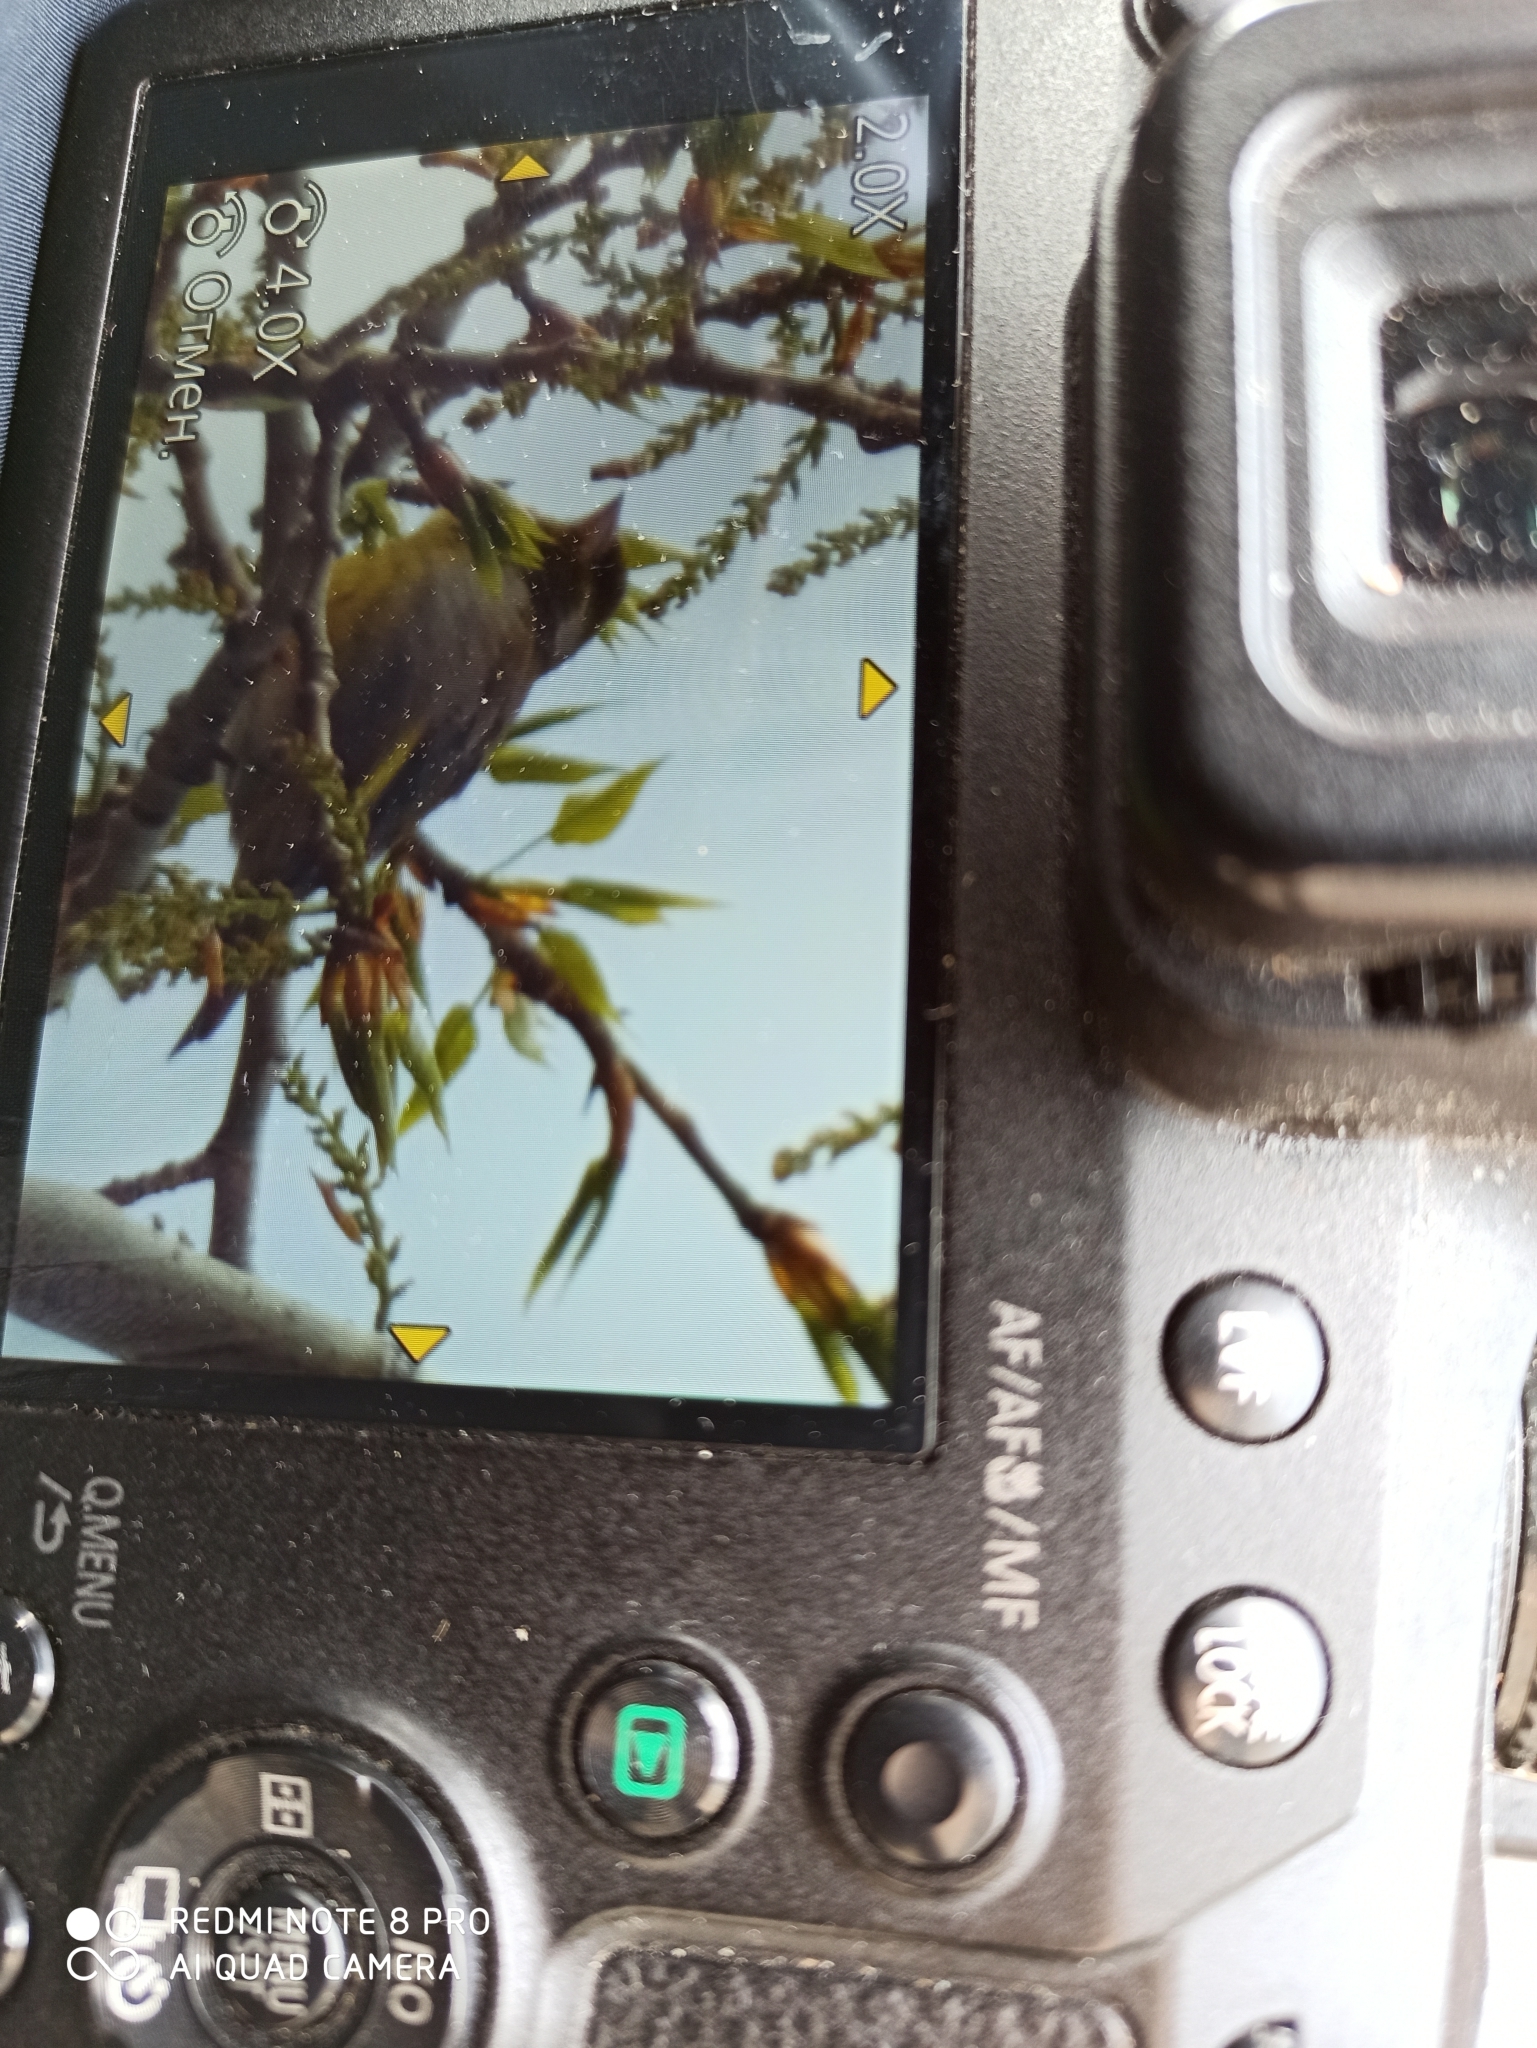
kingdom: Plantae
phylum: Tracheophyta
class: Liliopsida
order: Poales
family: Poaceae
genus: Chloris
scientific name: Chloris chloris
